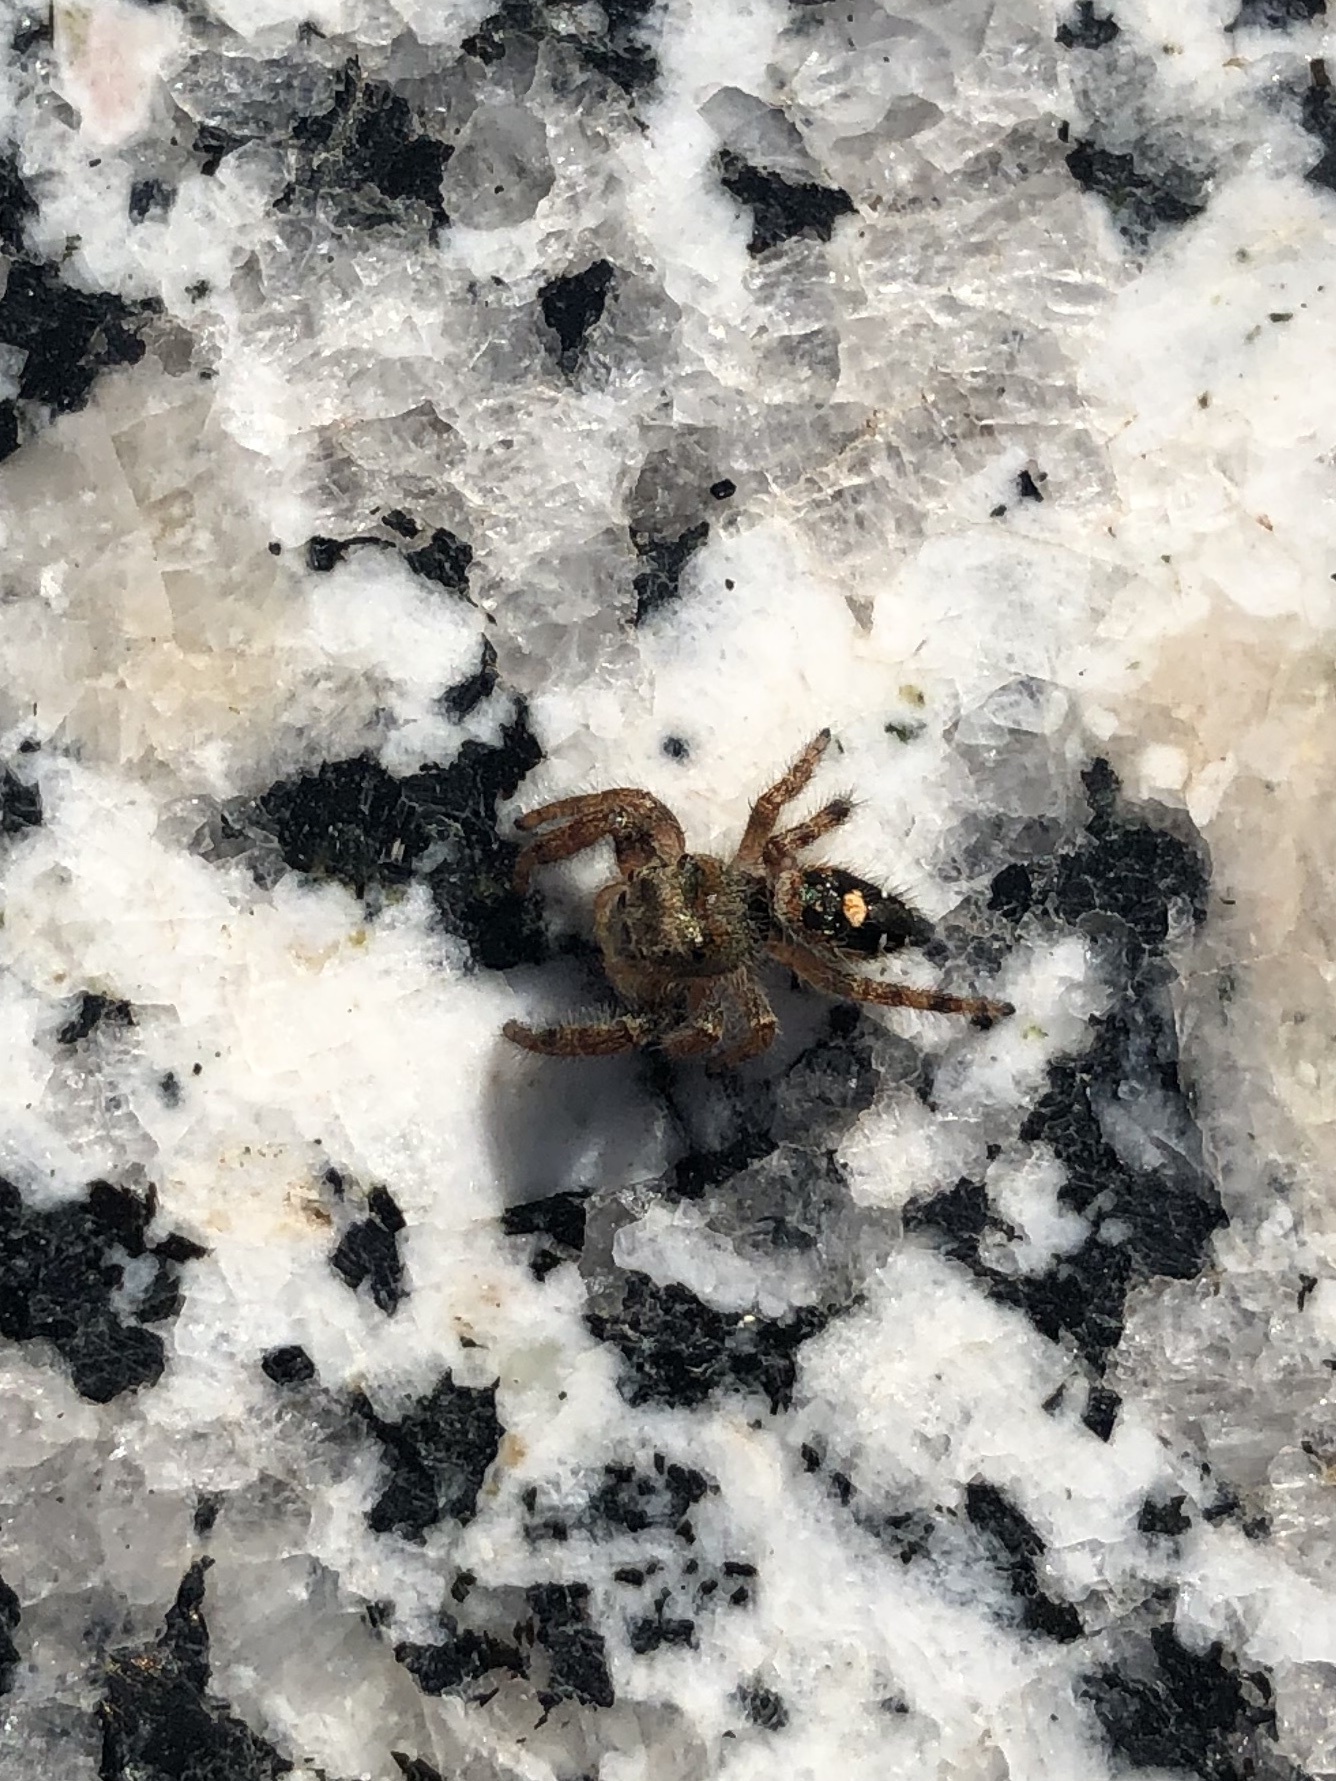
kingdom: Animalia
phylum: Arthropoda
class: Arachnida
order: Araneae
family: Salticidae
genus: Phidippus
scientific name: Phidippus audax
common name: Bold jumper
